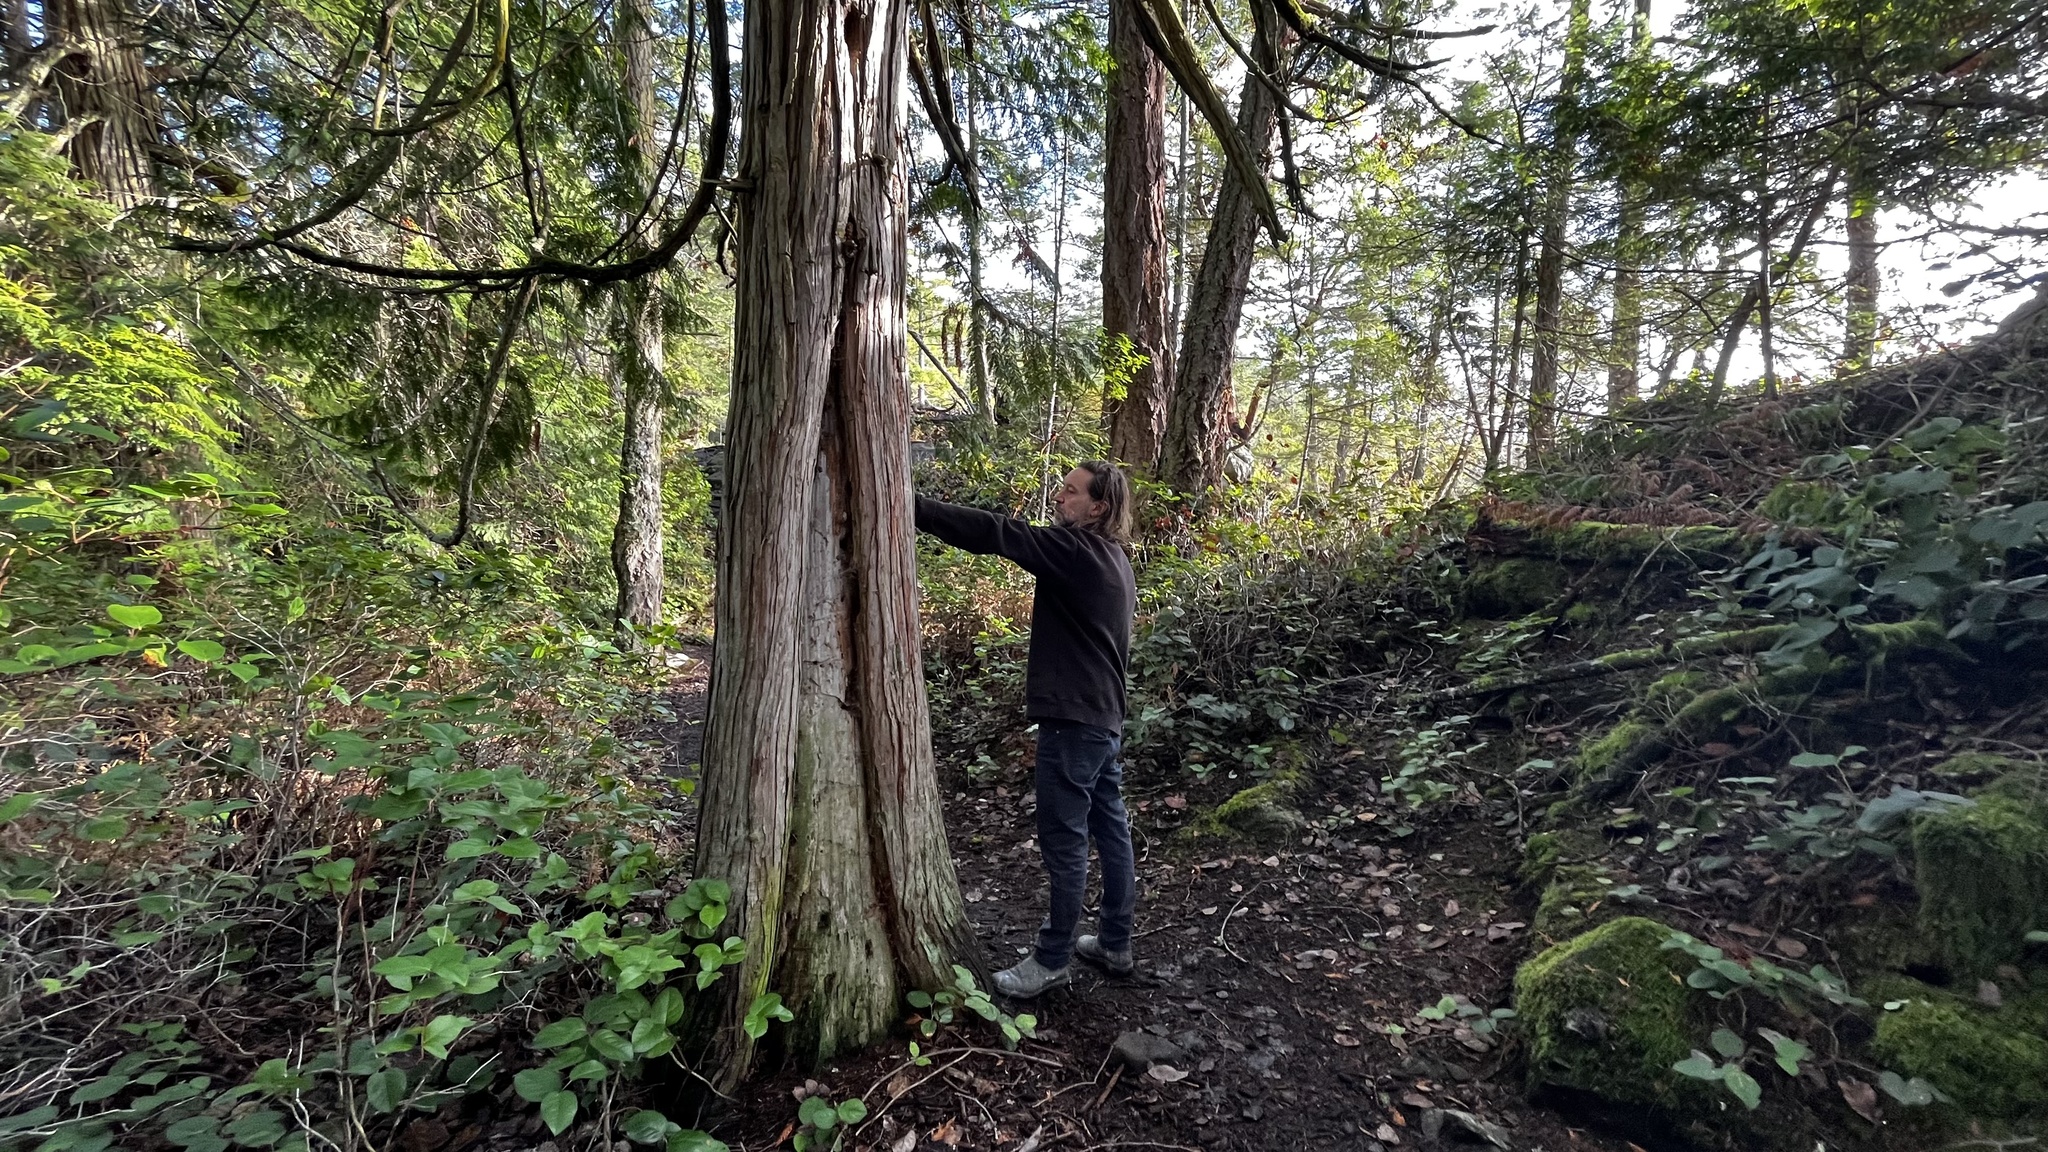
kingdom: Plantae
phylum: Tracheophyta
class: Pinopsida
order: Pinales
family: Cupressaceae
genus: Thuja
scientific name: Thuja plicata
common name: Western red-cedar
